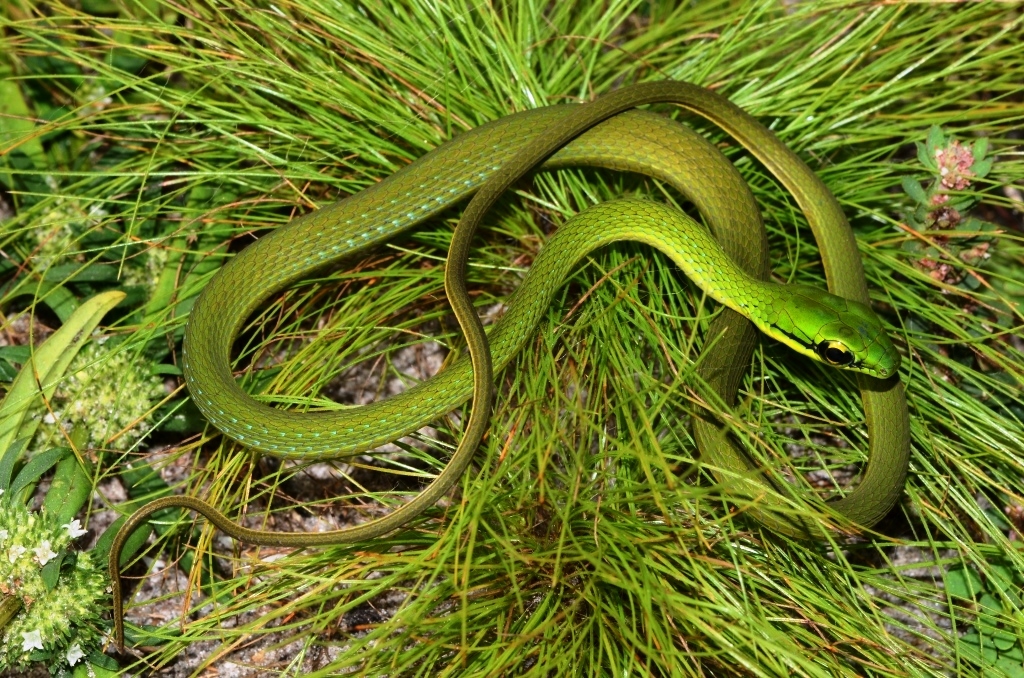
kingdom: Animalia
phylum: Chordata
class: Squamata
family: Colubridae
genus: Hapsidophrys
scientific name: Hapsidophrys smaragdinus
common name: Emerald snake
